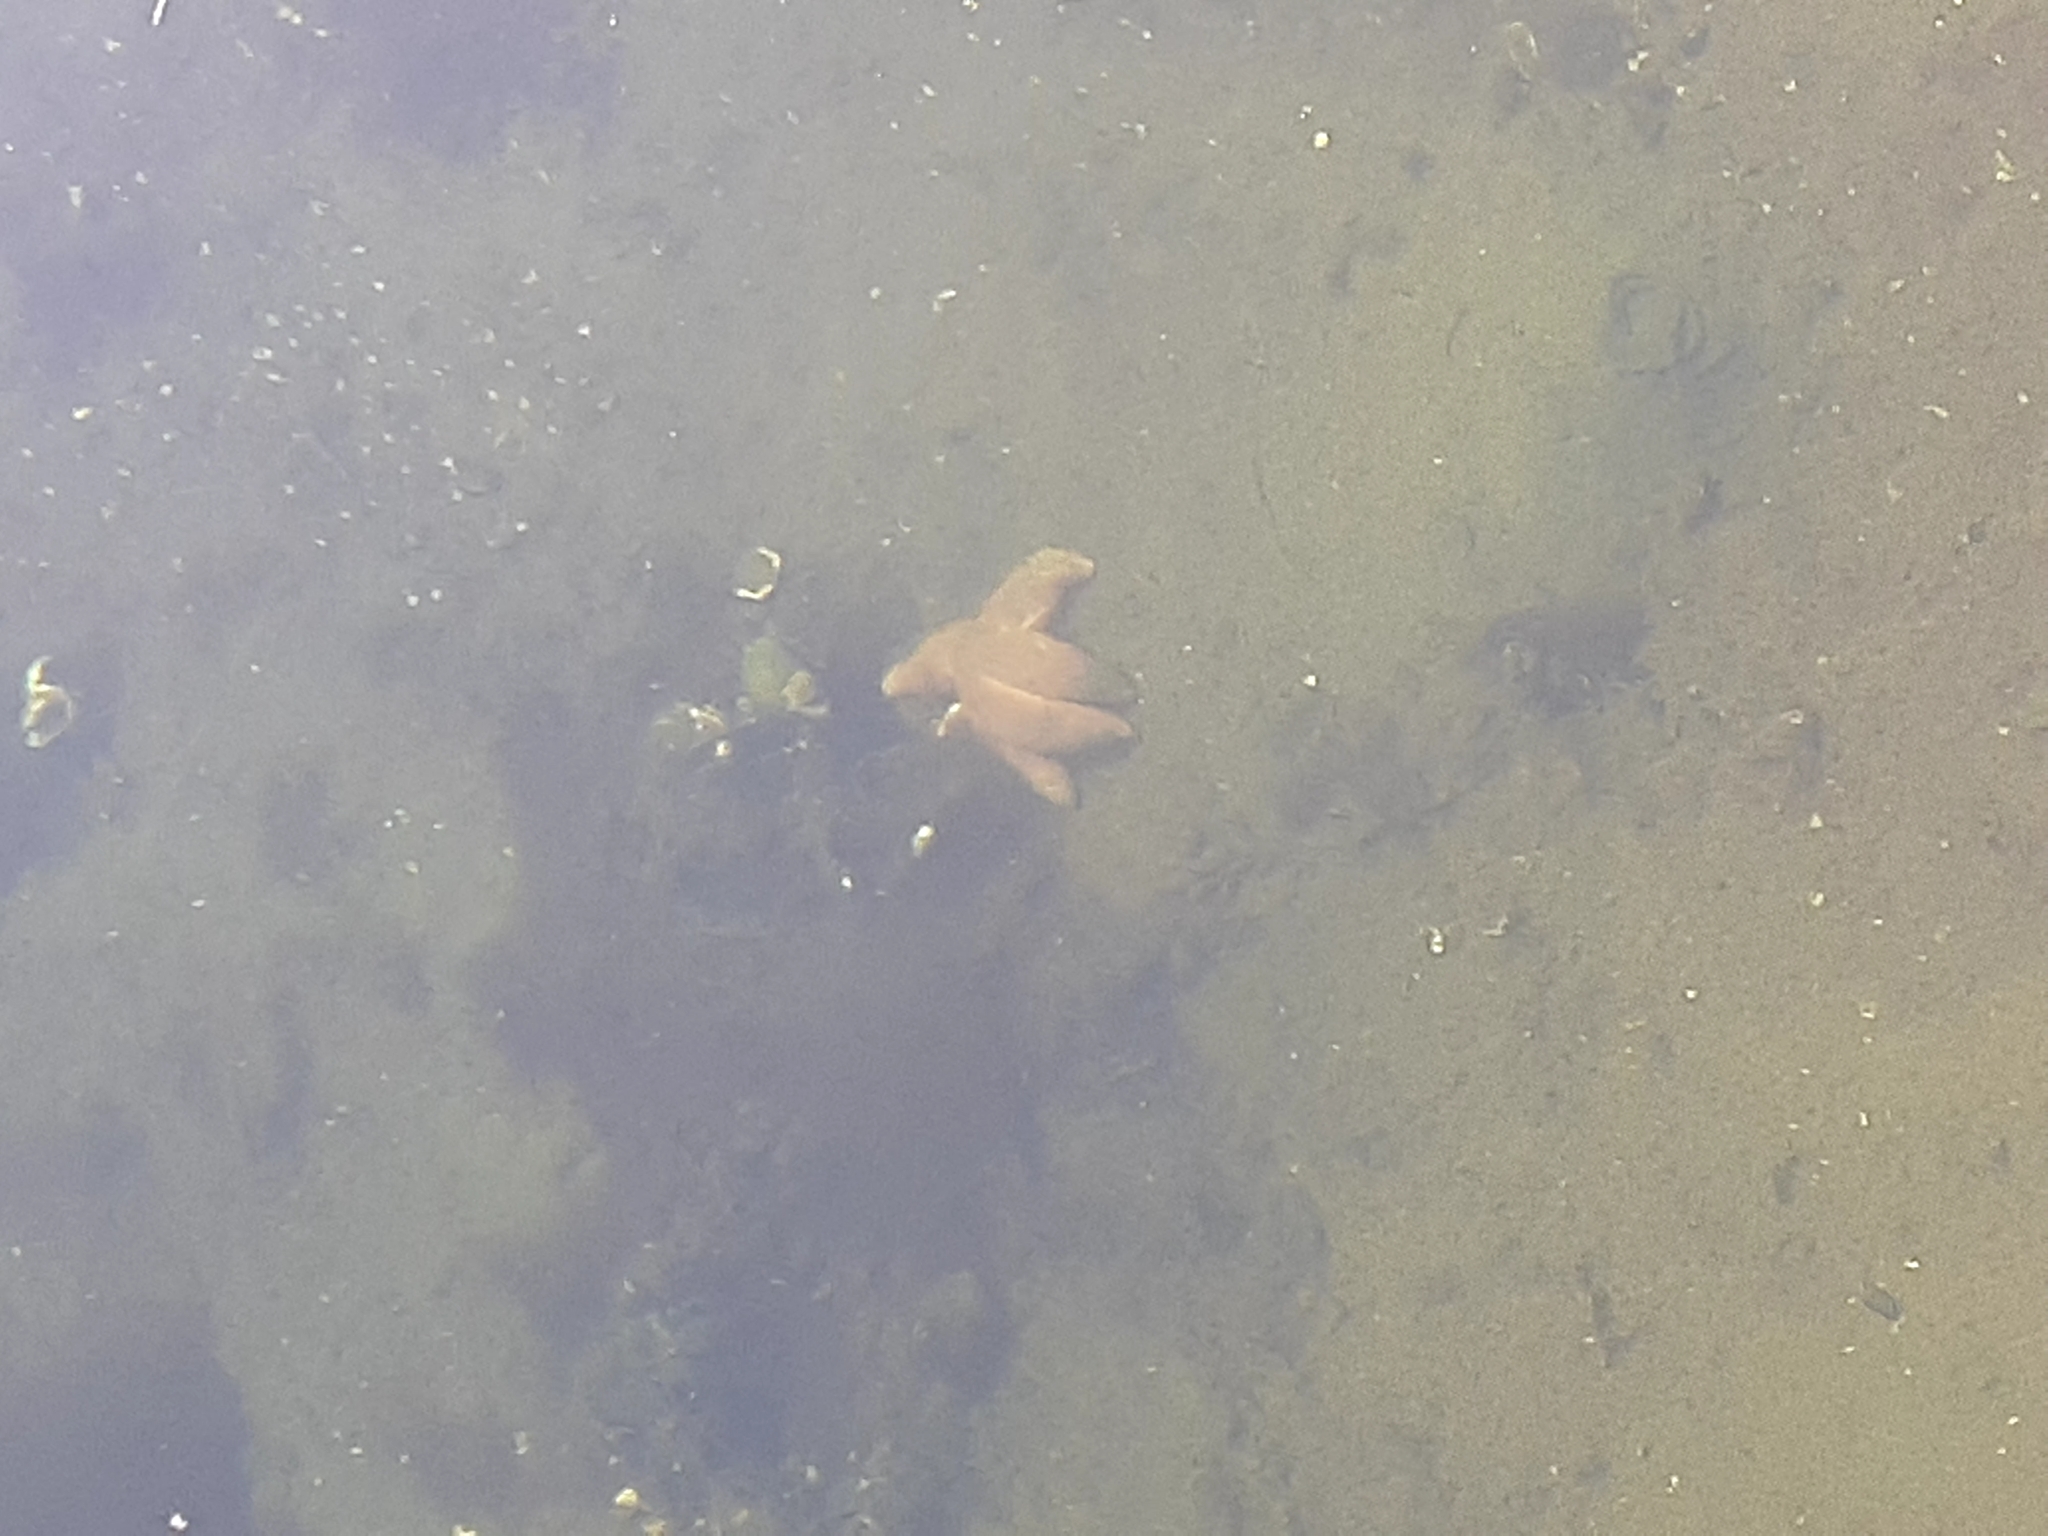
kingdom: Animalia
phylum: Echinodermata
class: Asteroidea
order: Forcipulatida
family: Asteriidae
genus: Leptasterias
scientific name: Leptasterias polaris
